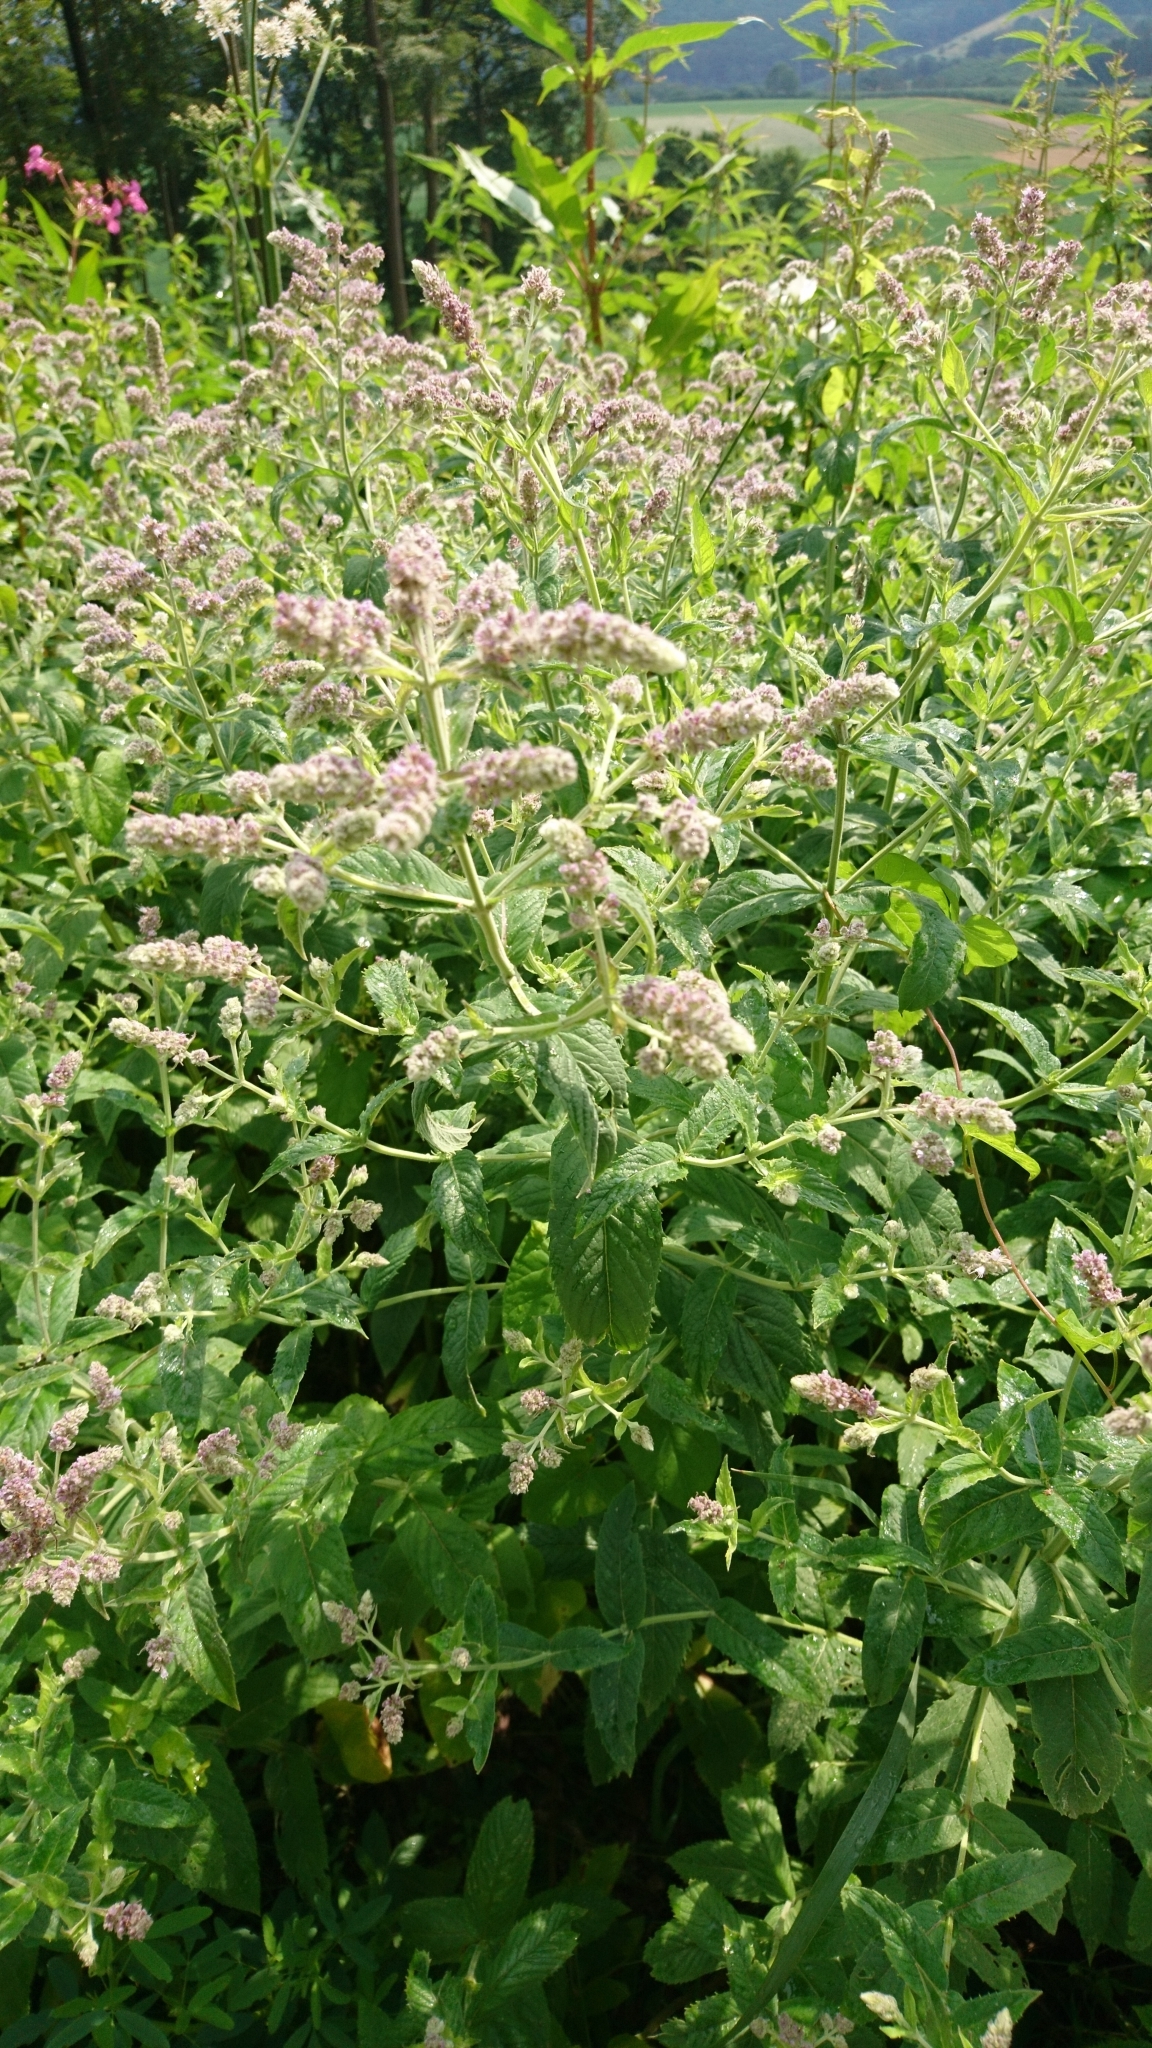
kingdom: Plantae
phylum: Tracheophyta
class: Magnoliopsida
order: Lamiales
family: Lamiaceae
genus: Mentha
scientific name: Mentha longifolia
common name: Horse mint
